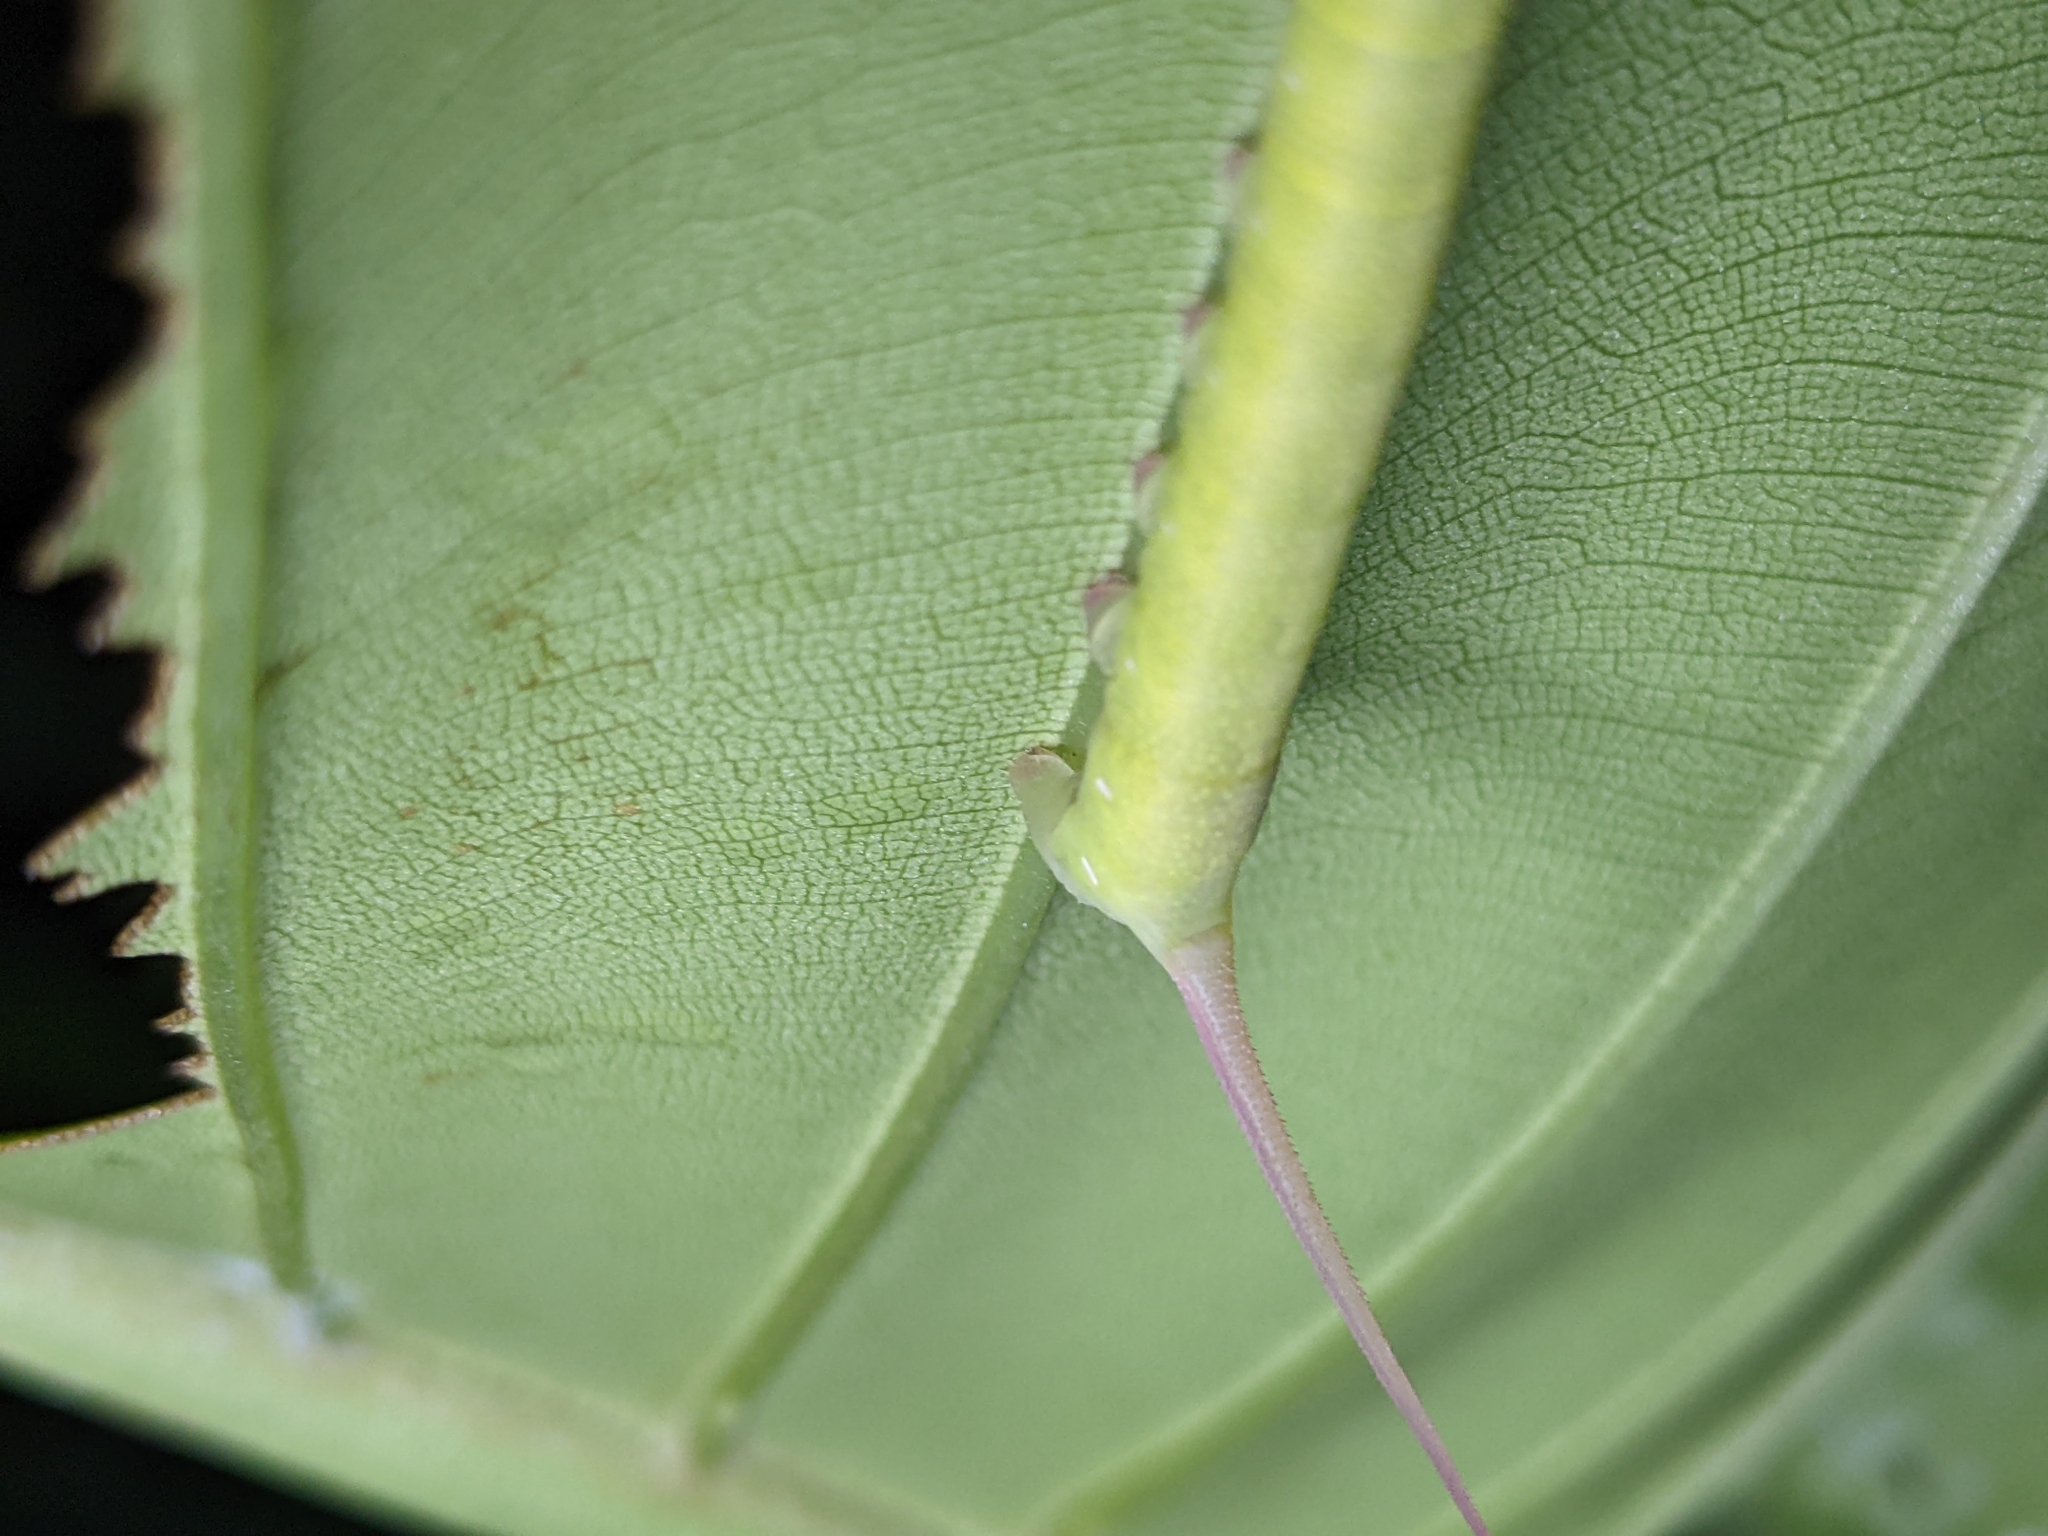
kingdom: Animalia
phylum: Arthropoda
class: Insecta
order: Lepidoptera
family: Sphingidae
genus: Enpinanga
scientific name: Enpinanga borneensis
